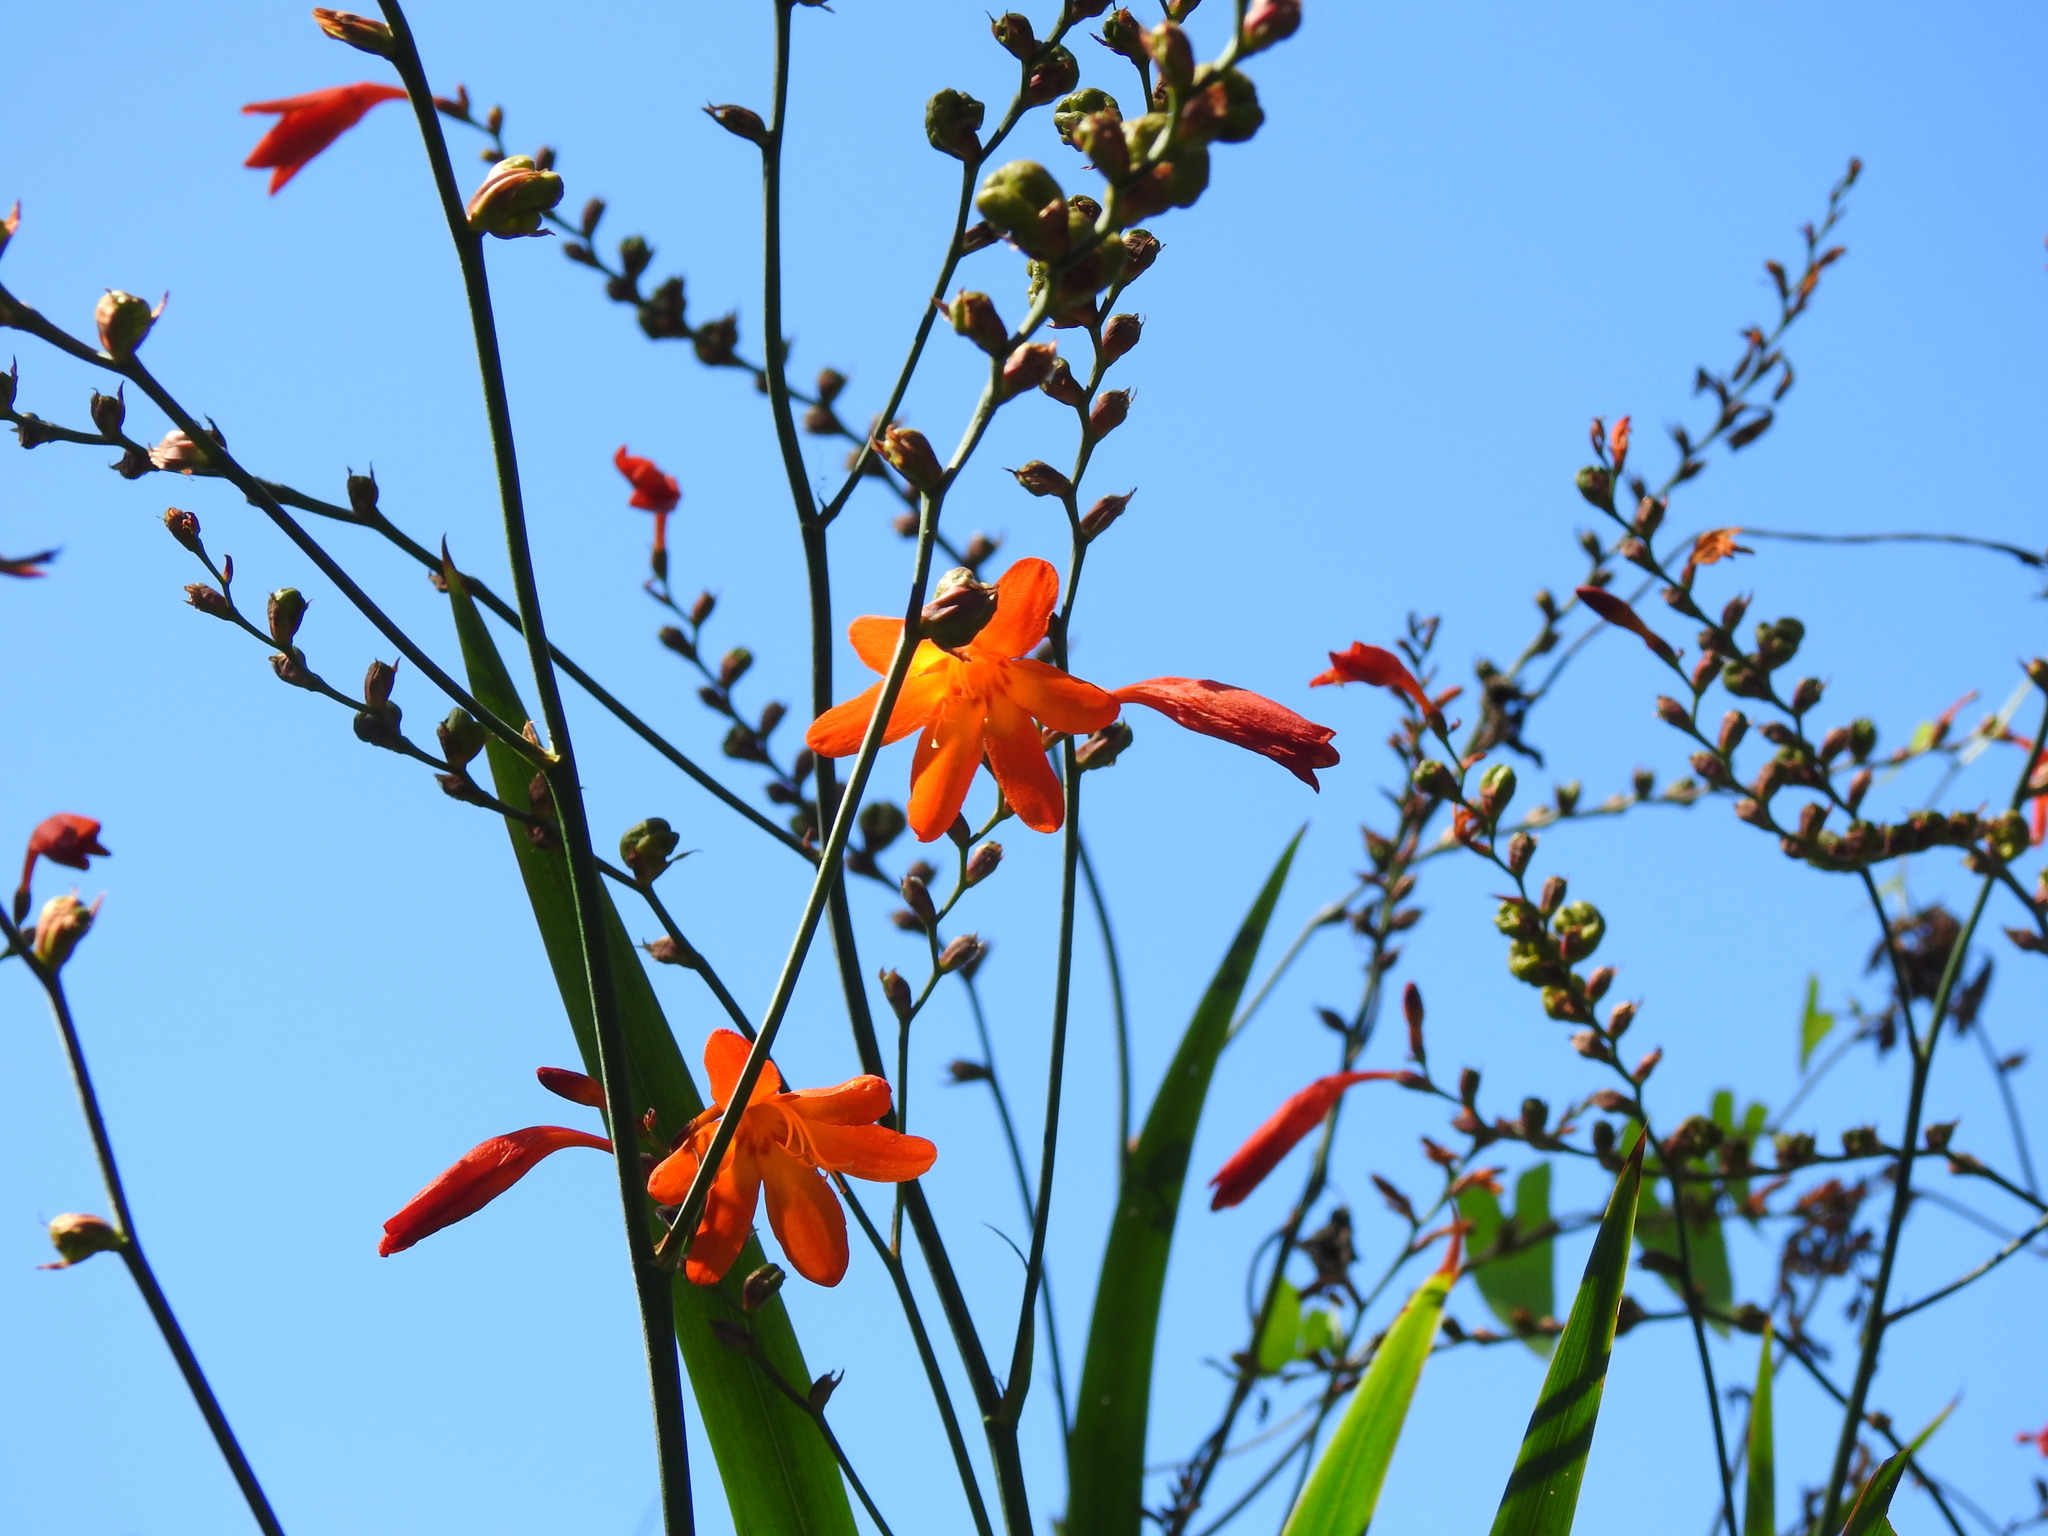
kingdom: Plantae
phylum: Tracheophyta
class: Liliopsida
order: Asparagales
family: Iridaceae
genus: Crocosmia
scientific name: Crocosmia crocosmiiflora
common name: Montbretia
